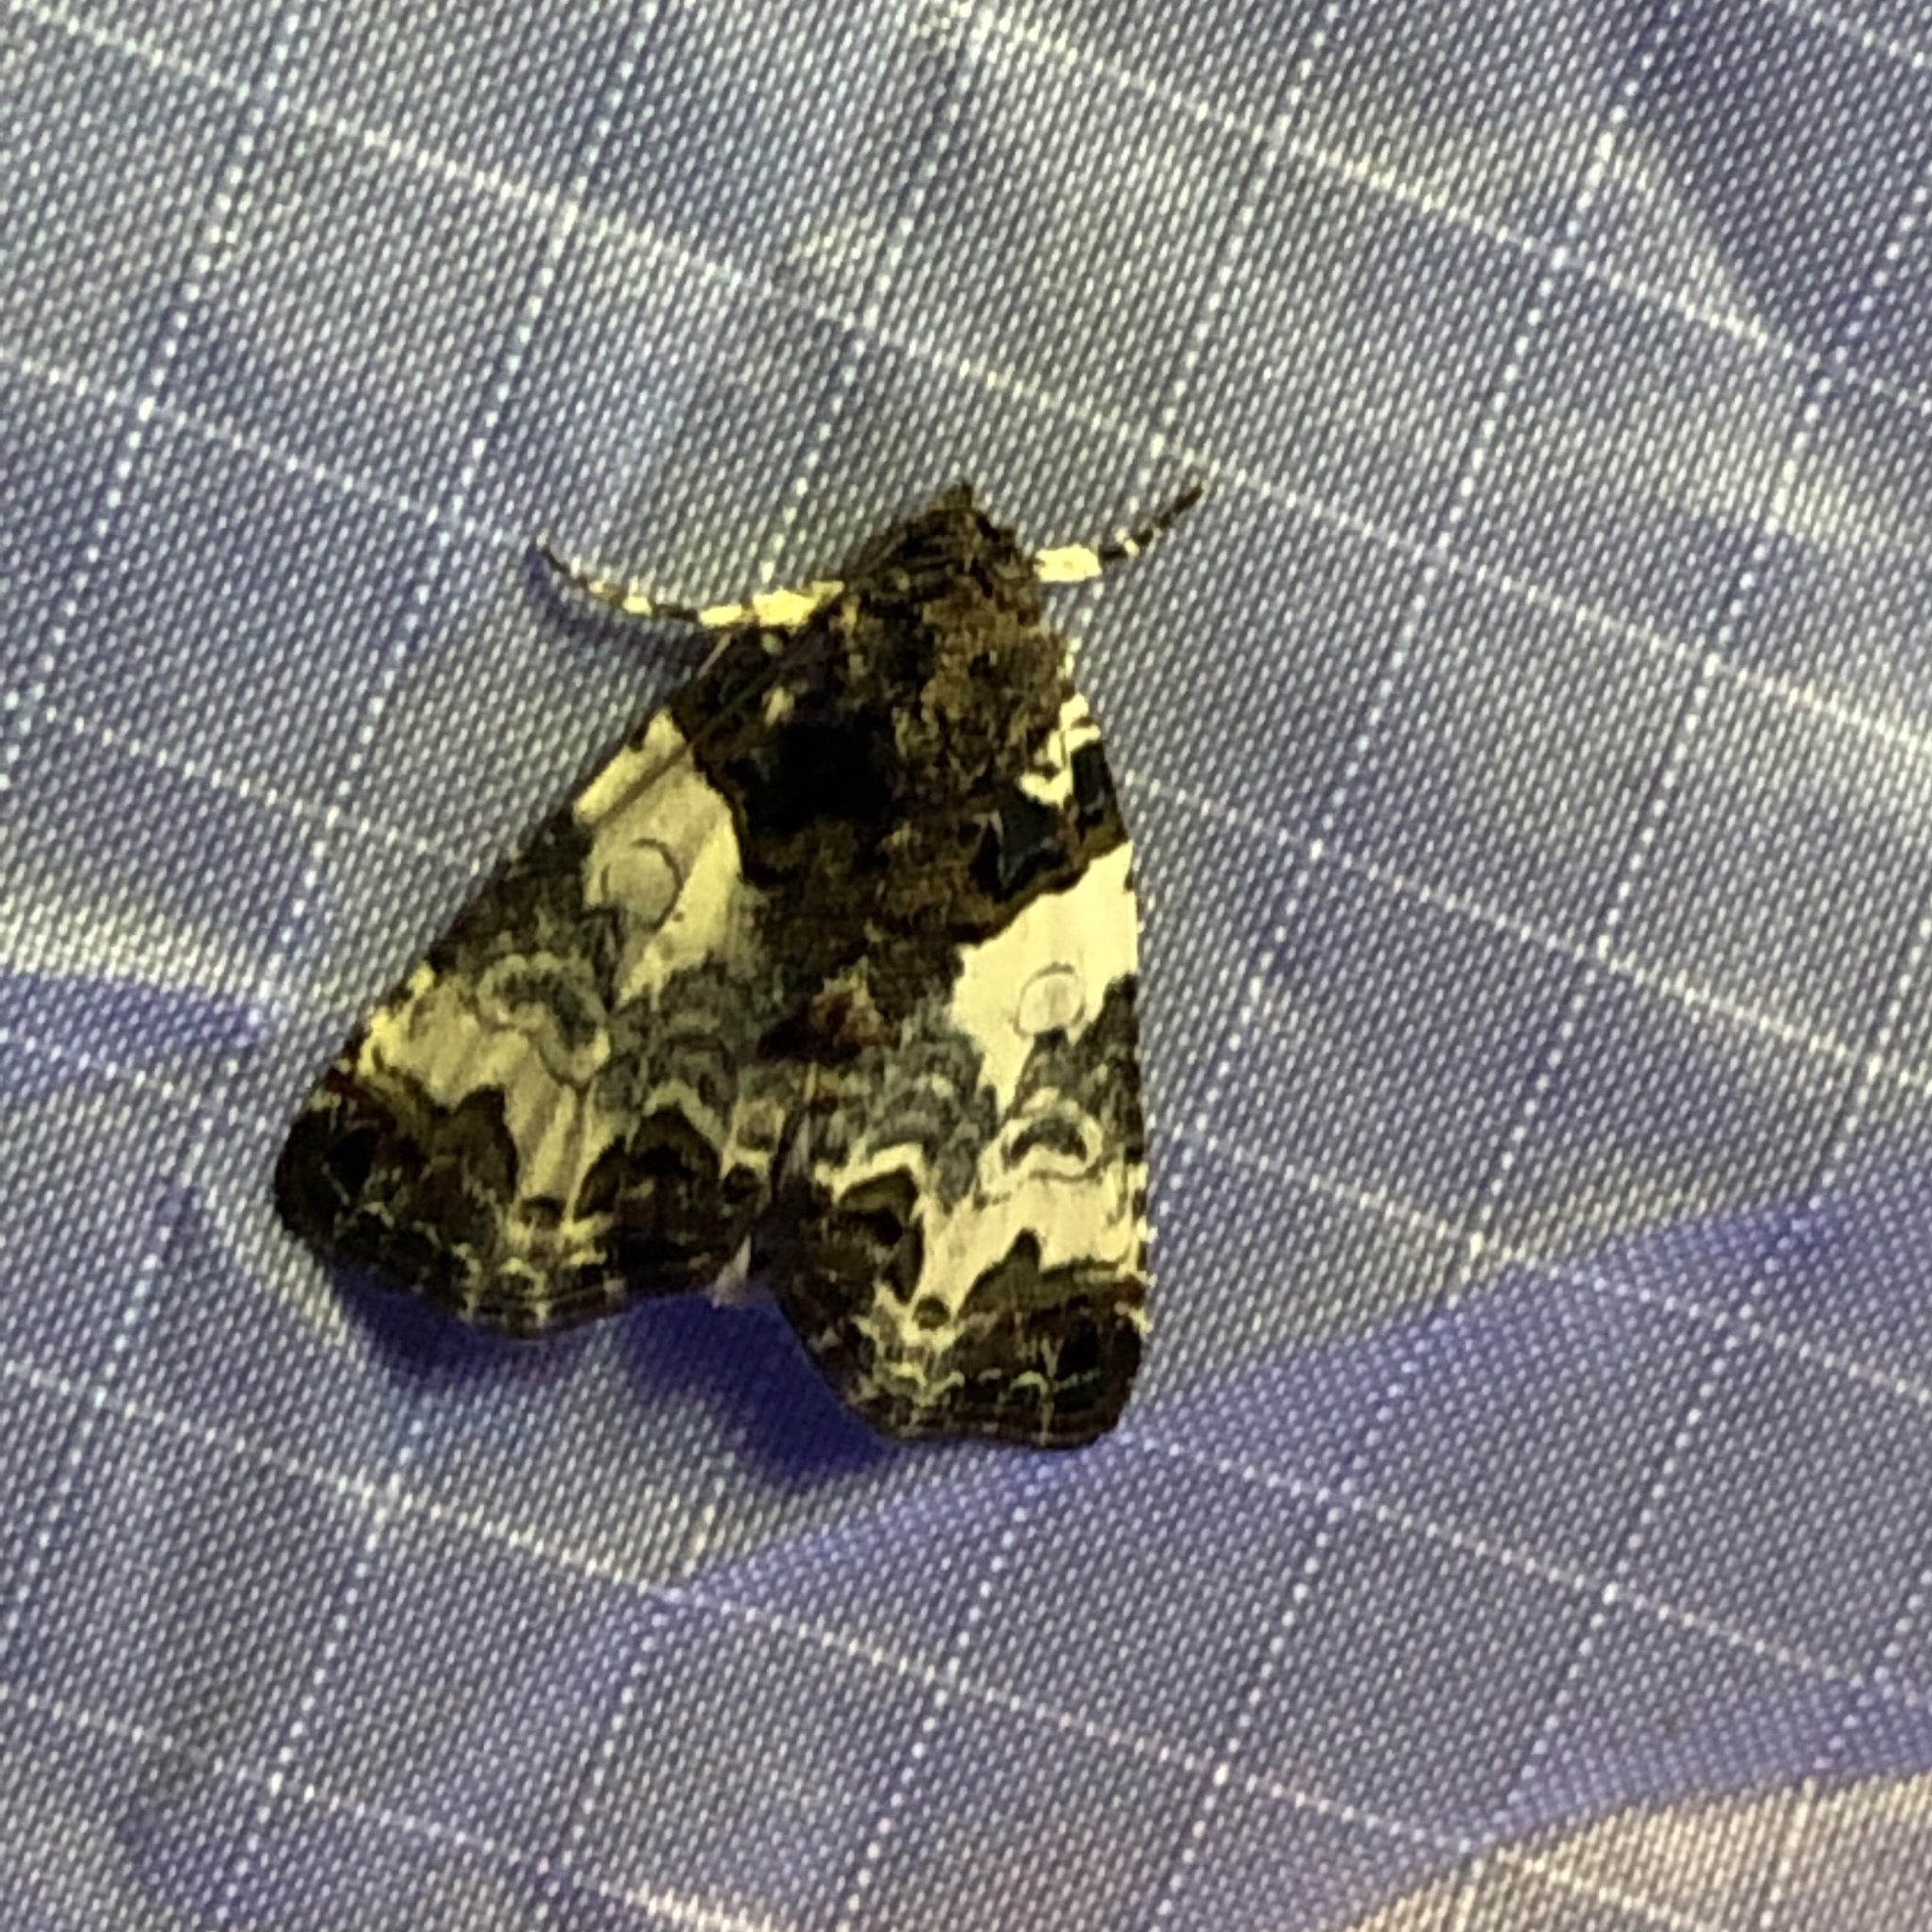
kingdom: Animalia
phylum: Arthropoda
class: Insecta
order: Lepidoptera
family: Noctuidae
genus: Cerma
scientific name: Cerma cerintha
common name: Tufted bird-dropping moth
